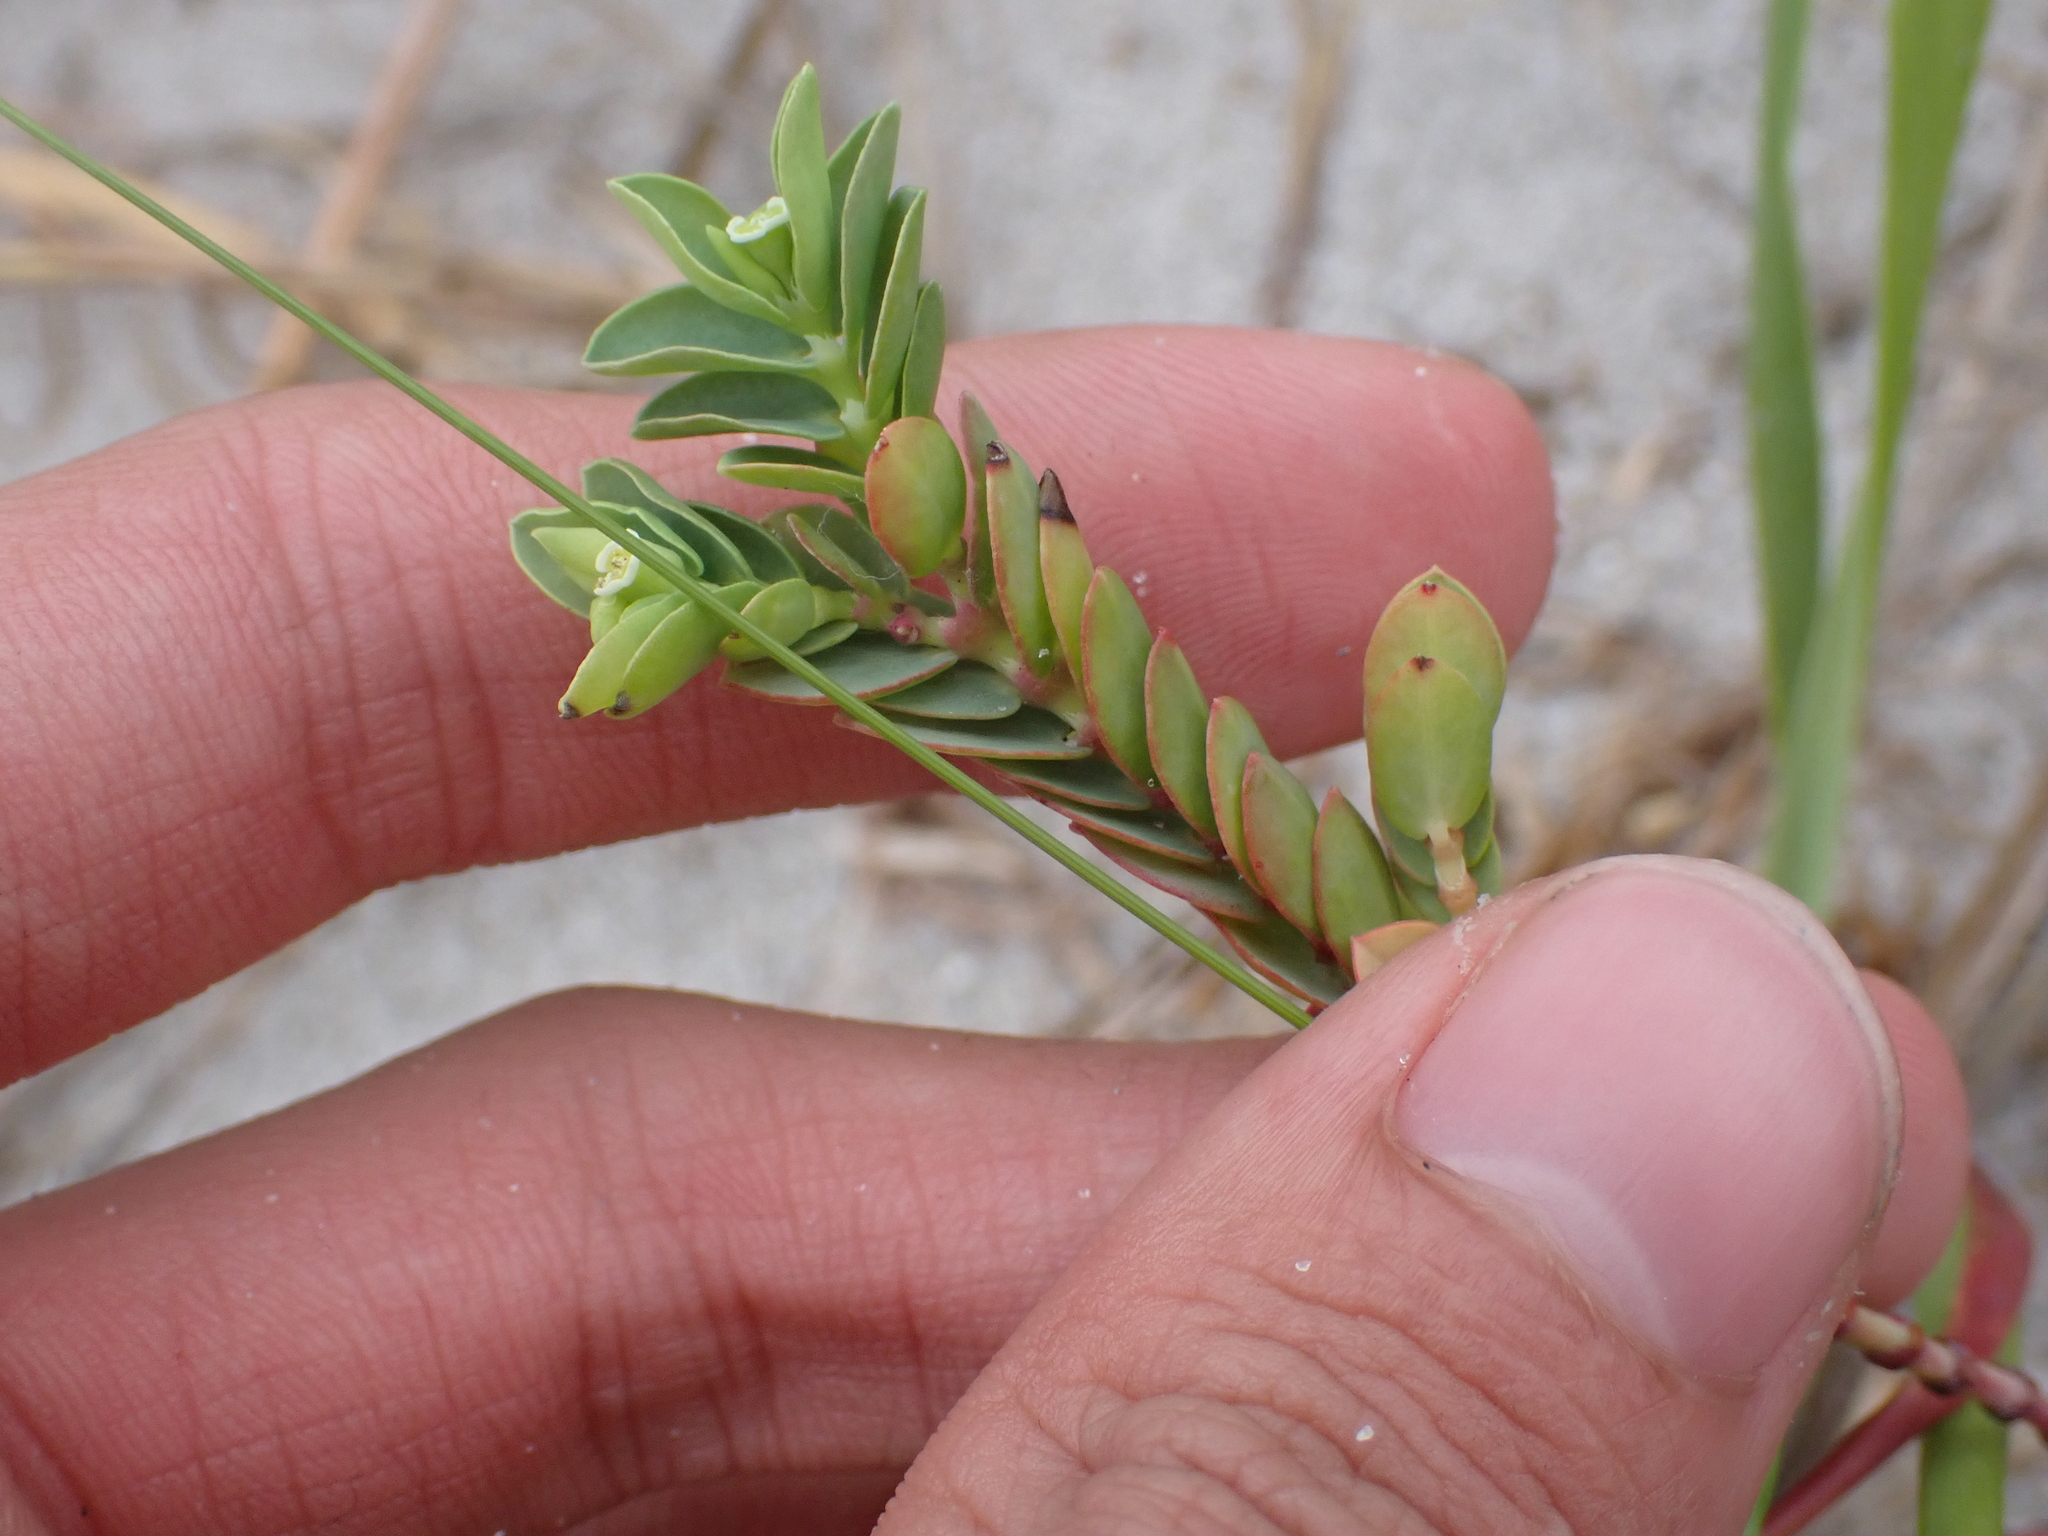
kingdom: Plantae
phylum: Tracheophyta
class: Magnoliopsida
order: Malpighiales
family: Euphorbiaceae
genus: Euphorbia
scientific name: Euphorbia mesembryanthemifolia
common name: Coastal beach sandmat
